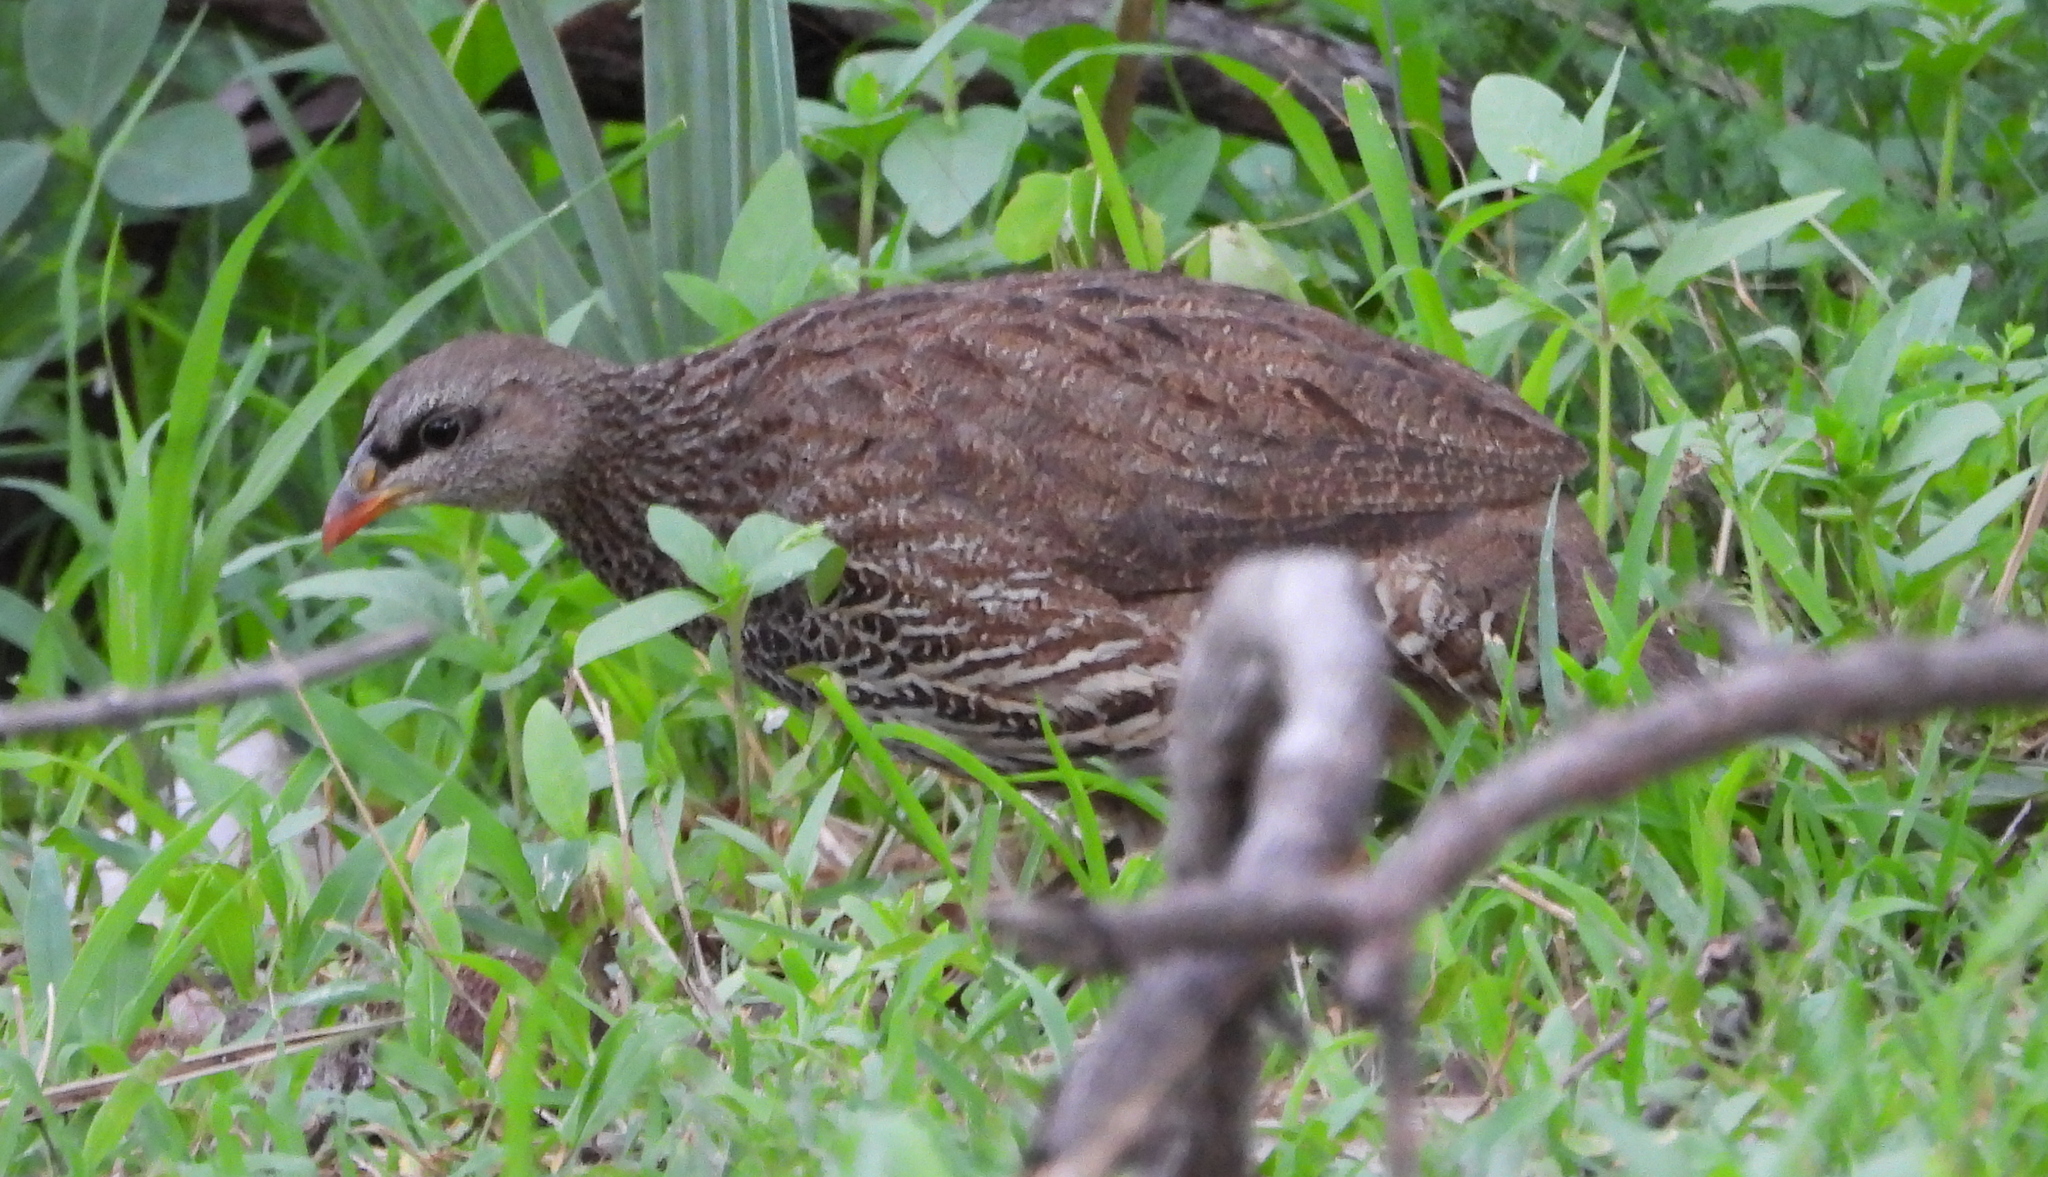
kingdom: Animalia
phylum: Chordata
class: Aves
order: Galliformes
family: Phasianidae
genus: Pternistis
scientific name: Pternistis natalensis
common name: Natal spurfowl
